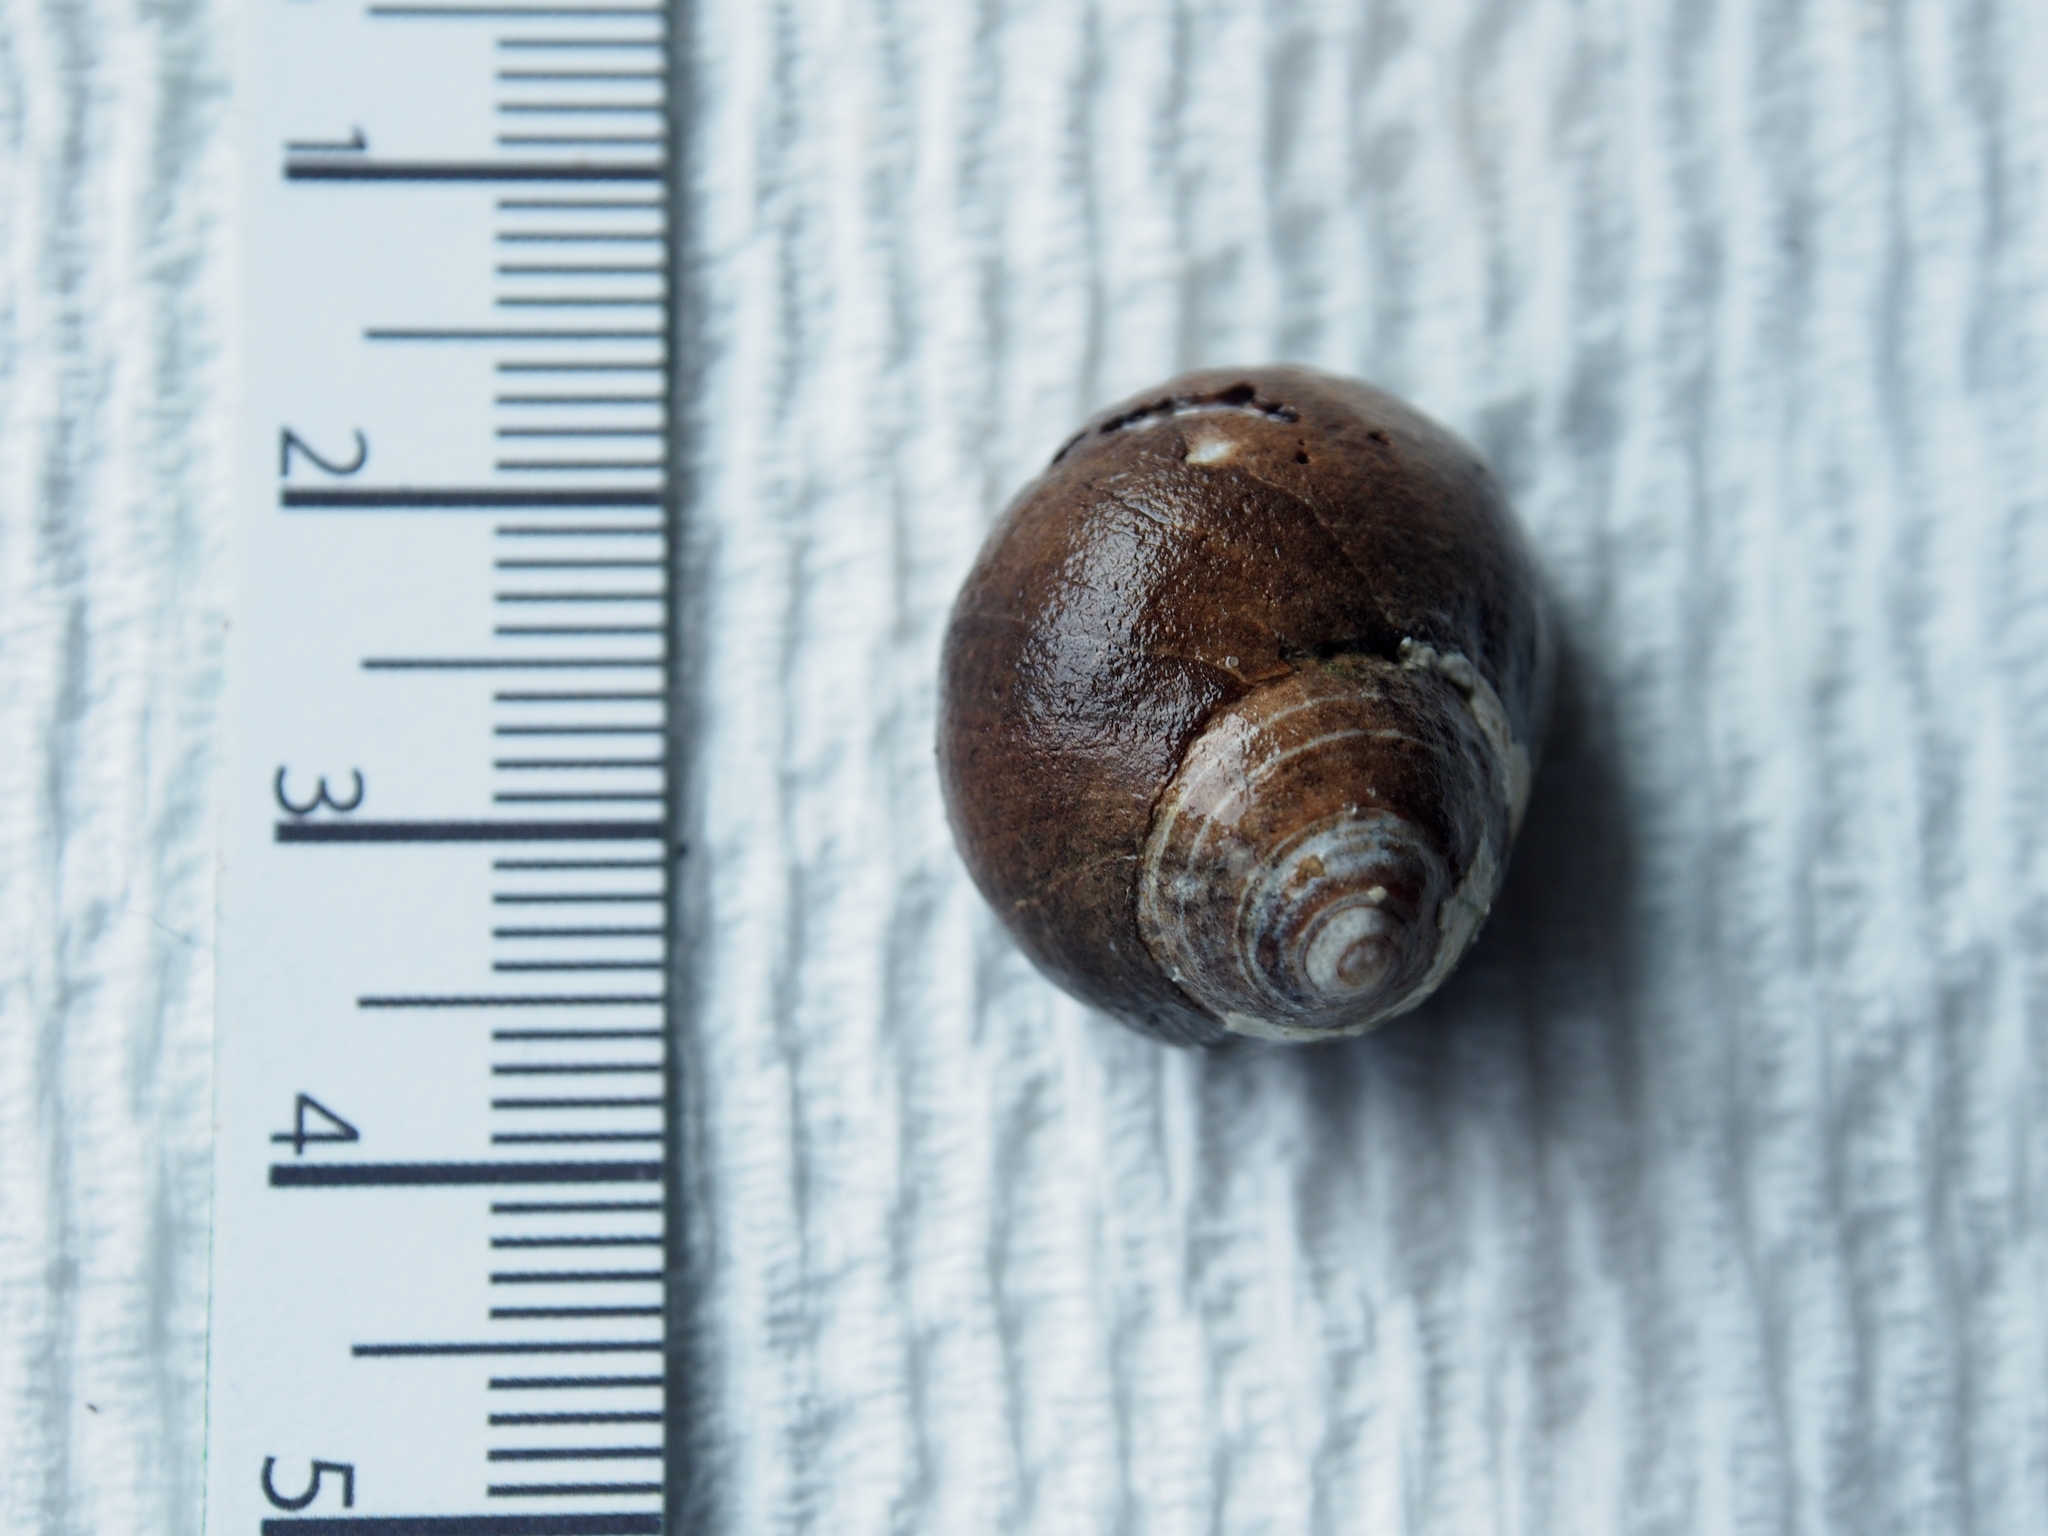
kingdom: Animalia
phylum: Mollusca
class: Gastropoda
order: Littorinimorpha
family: Littorinidae
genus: Littorina
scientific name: Littorina littorea
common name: Common periwinkle
